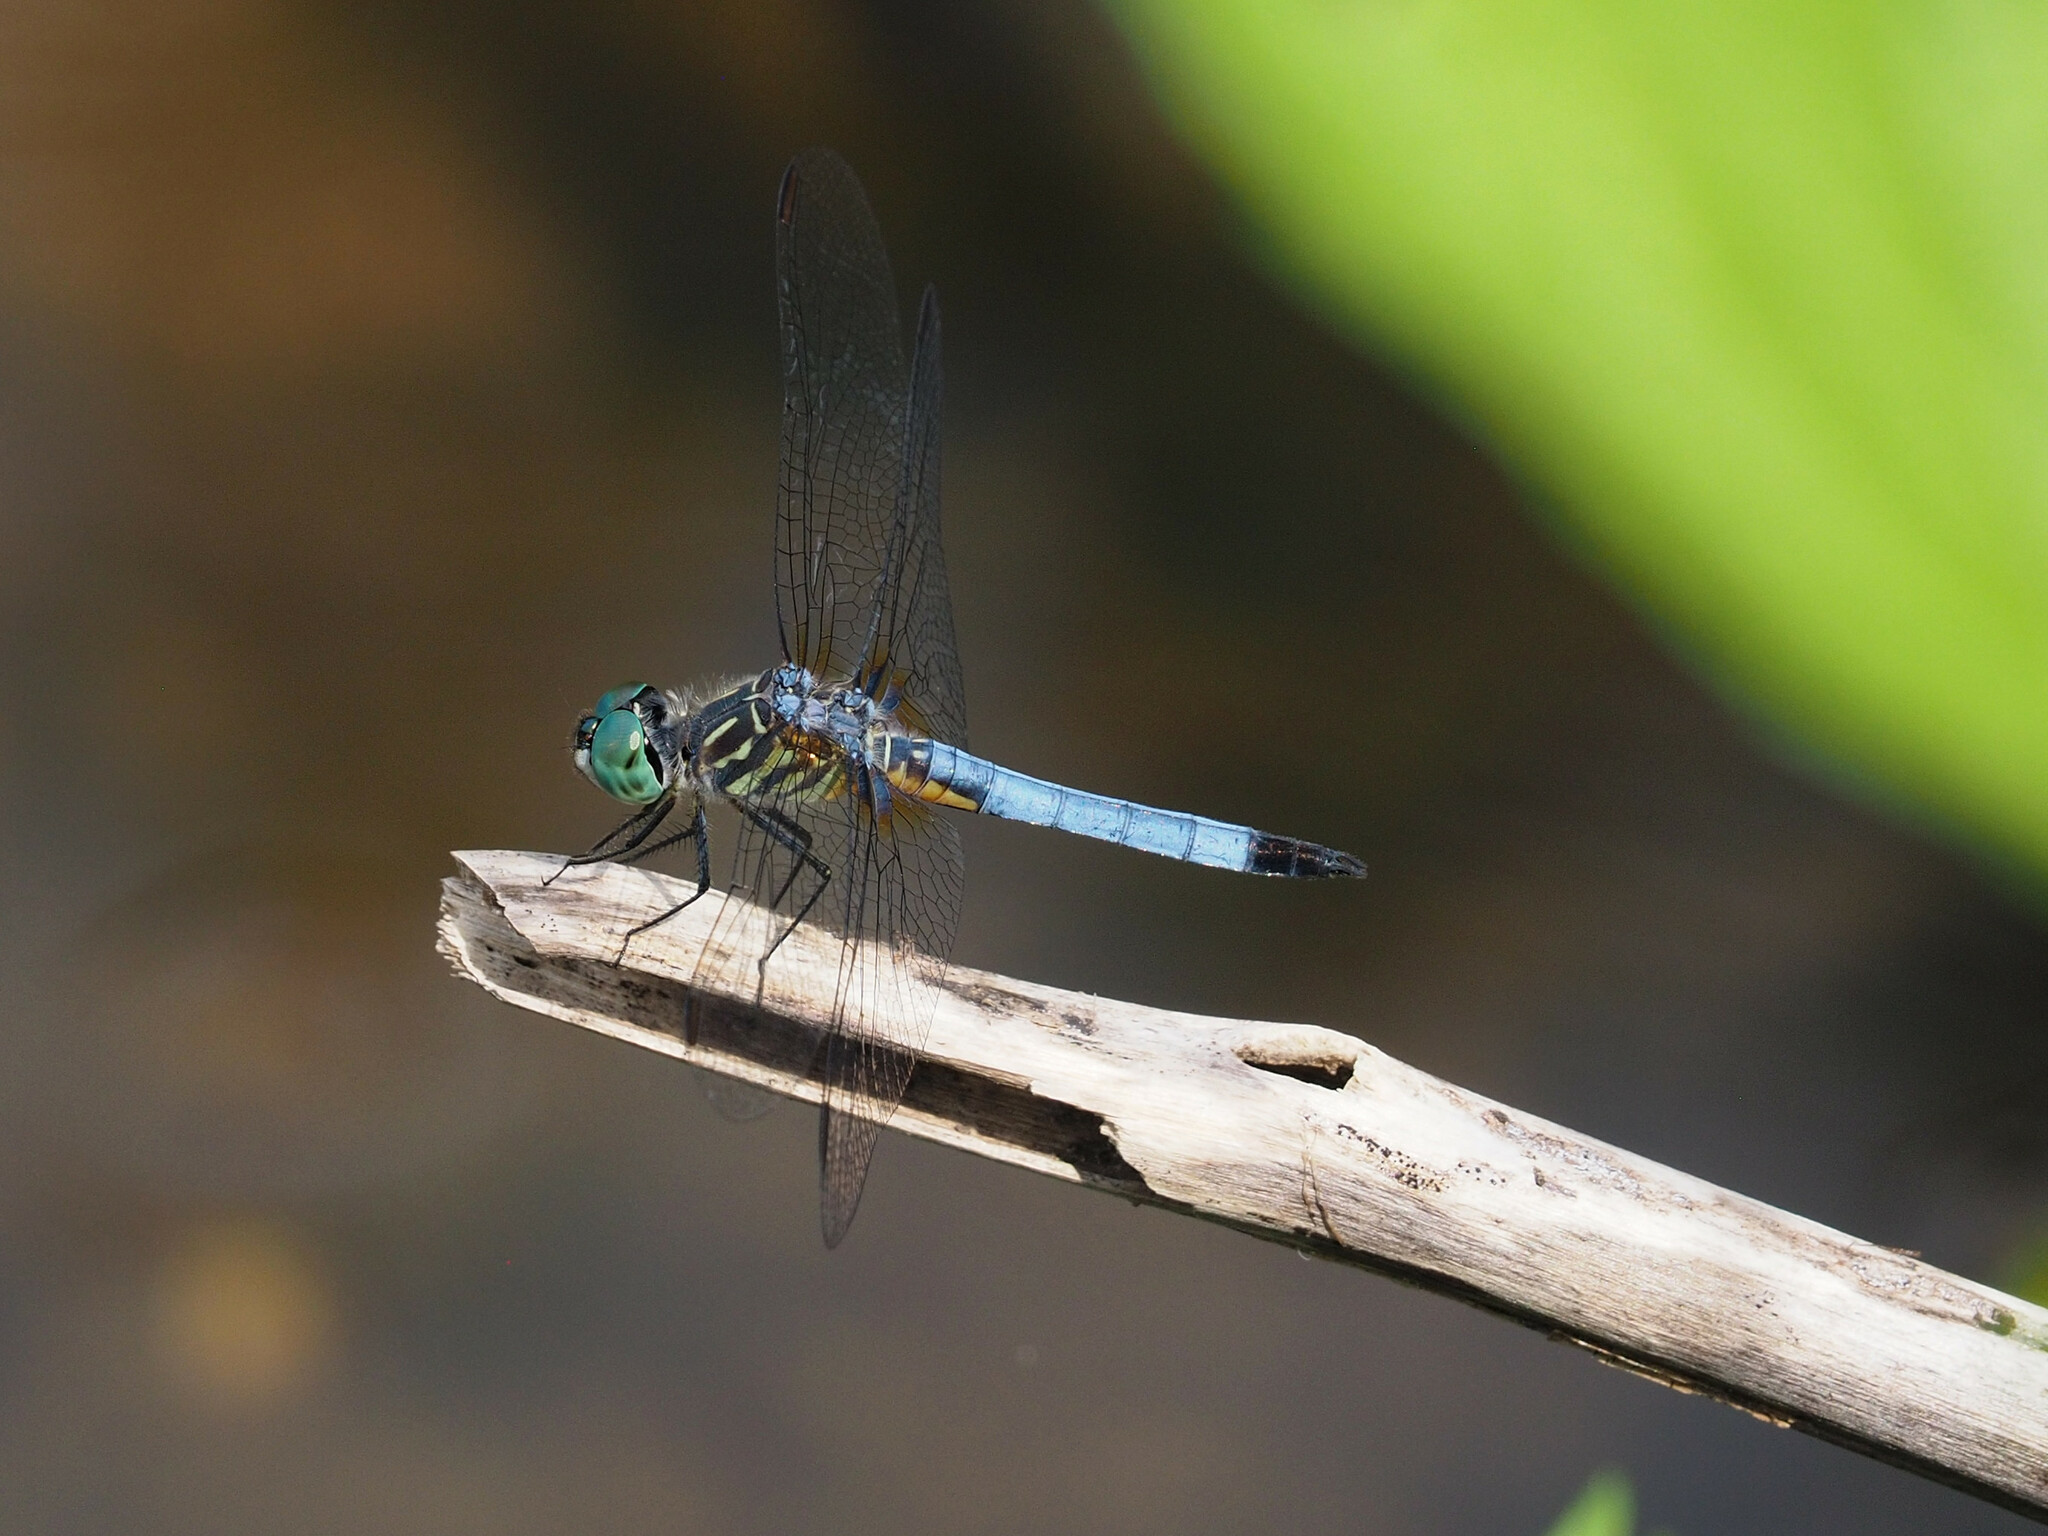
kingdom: Animalia
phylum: Arthropoda
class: Insecta
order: Odonata
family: Libellulidae
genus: Pachydiplax
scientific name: Pachydiplax longipennis
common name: Blue dasher
